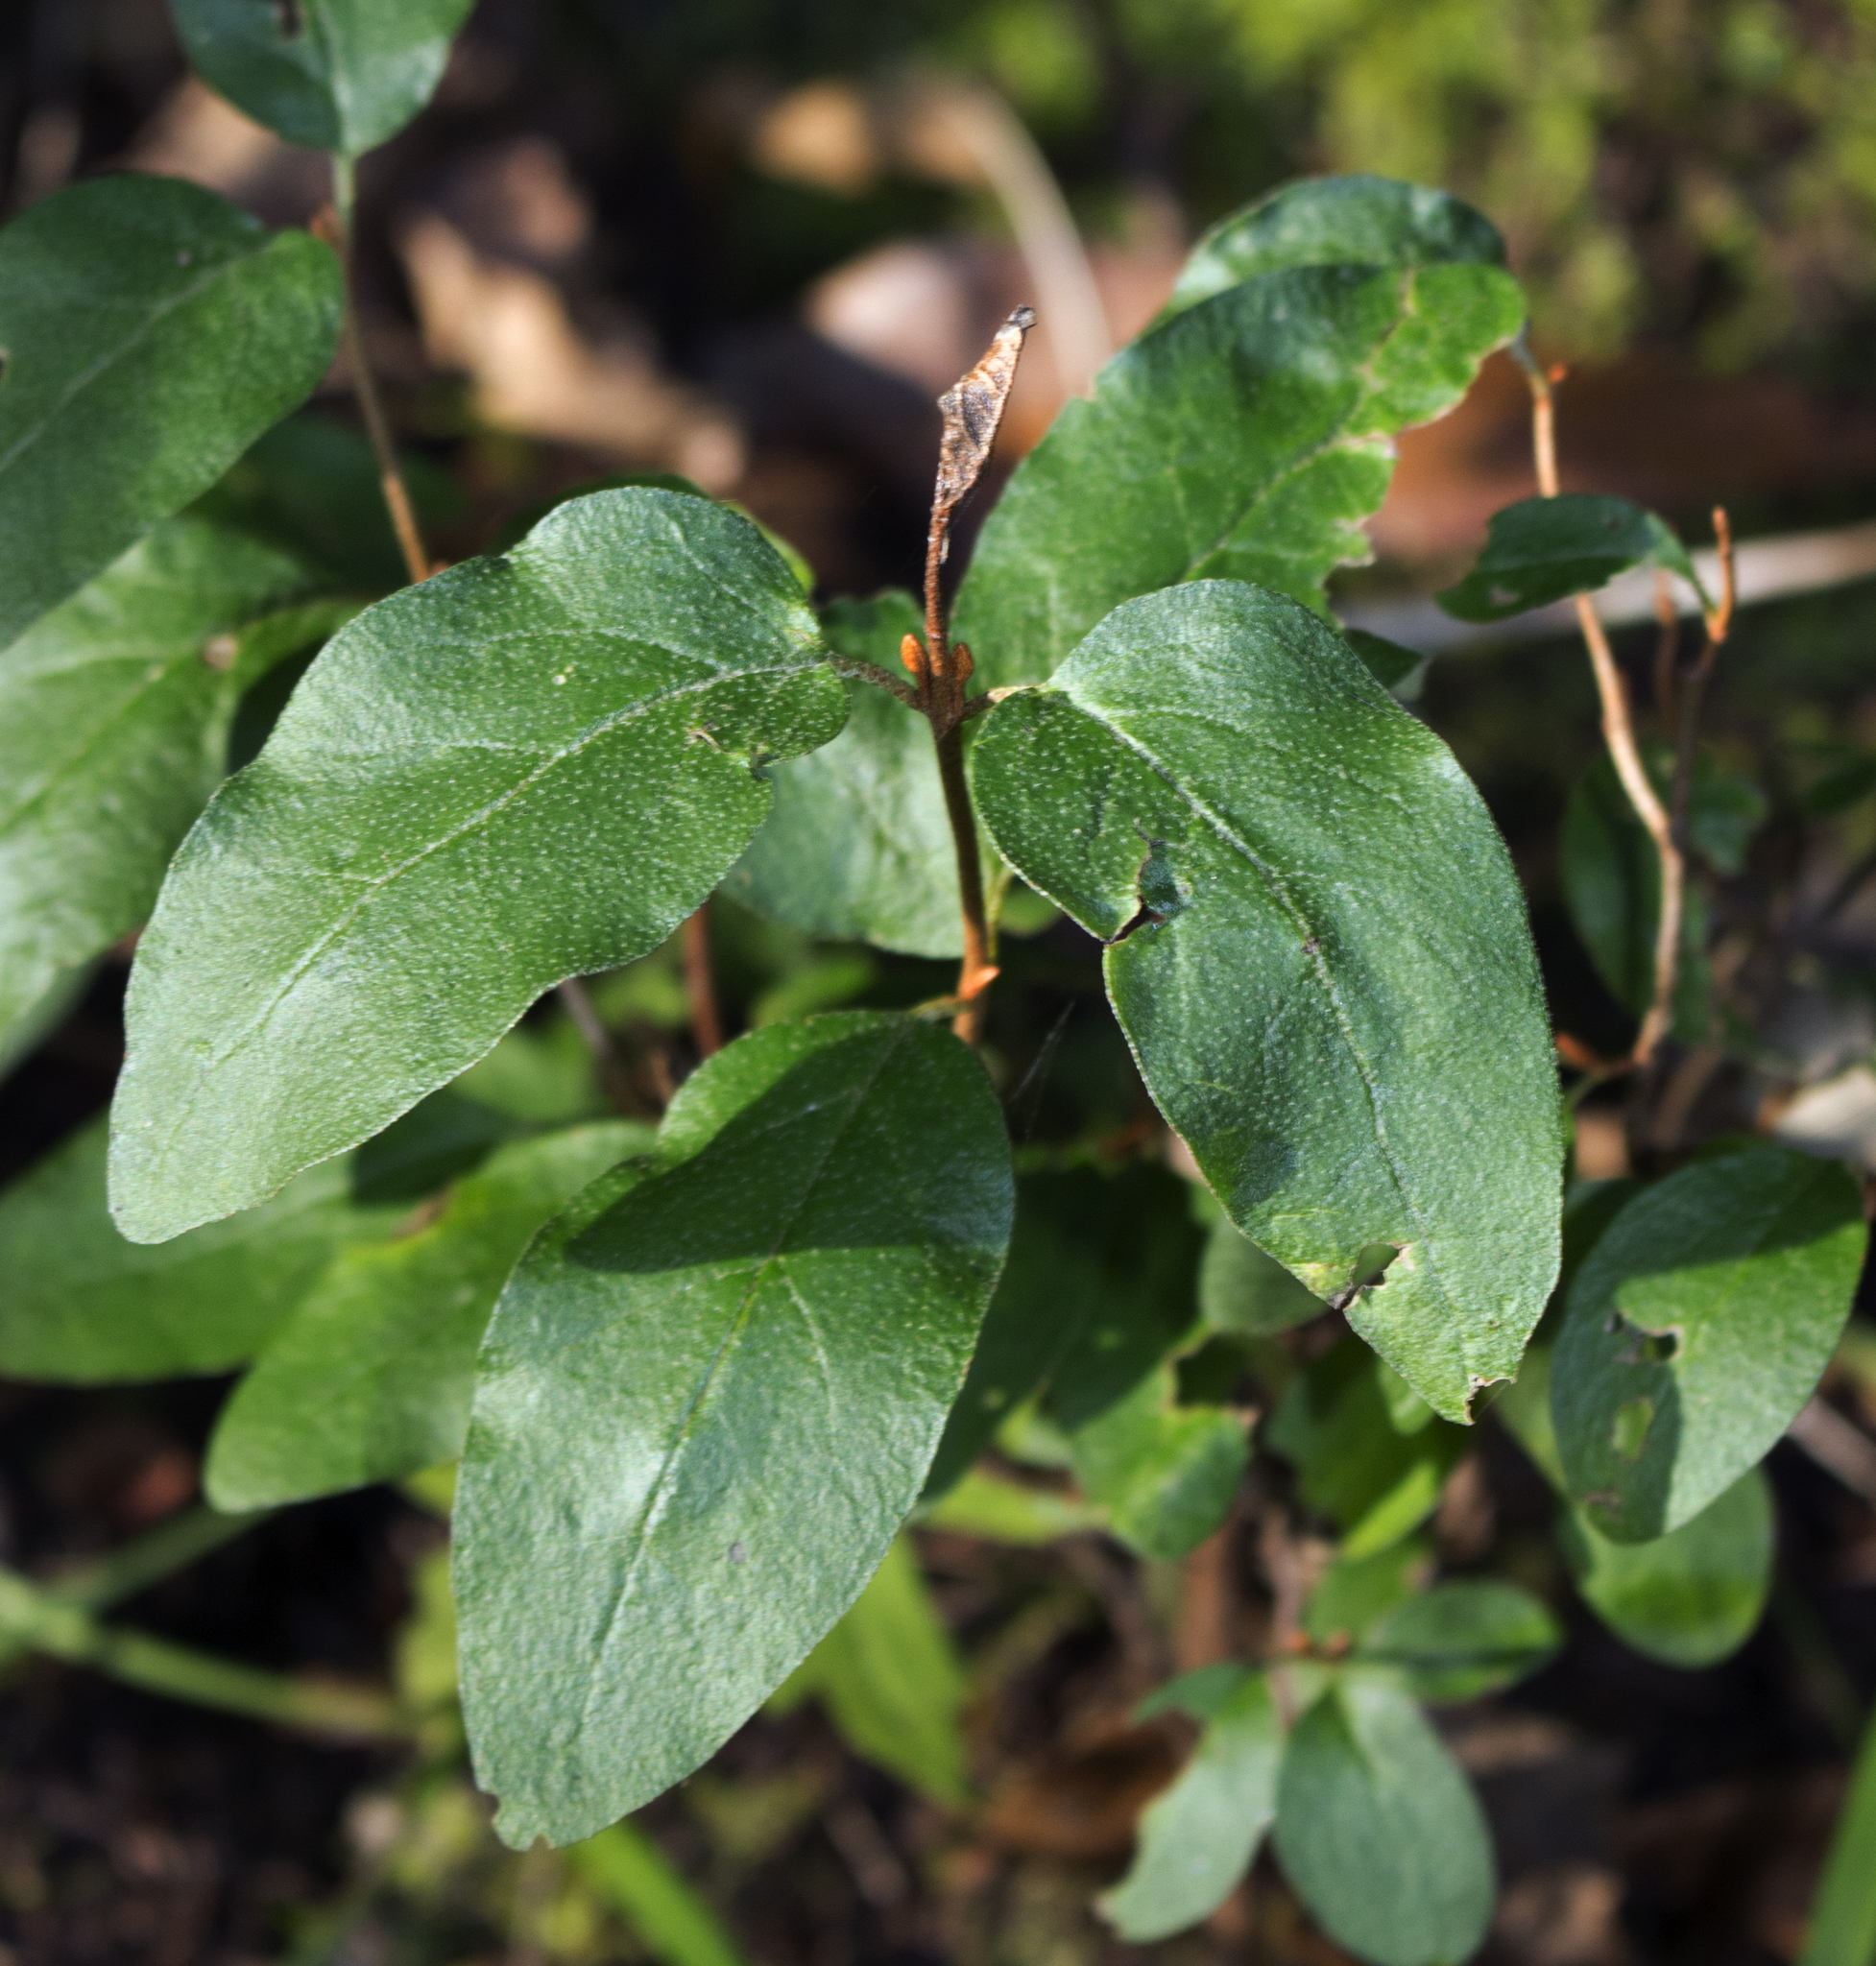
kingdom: Plantae
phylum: Tracheophyta
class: Magnoliopsida
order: Rosales
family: Elaeagnaceae
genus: Shepherdia
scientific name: Shepherdia canadensis
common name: Soapberry
